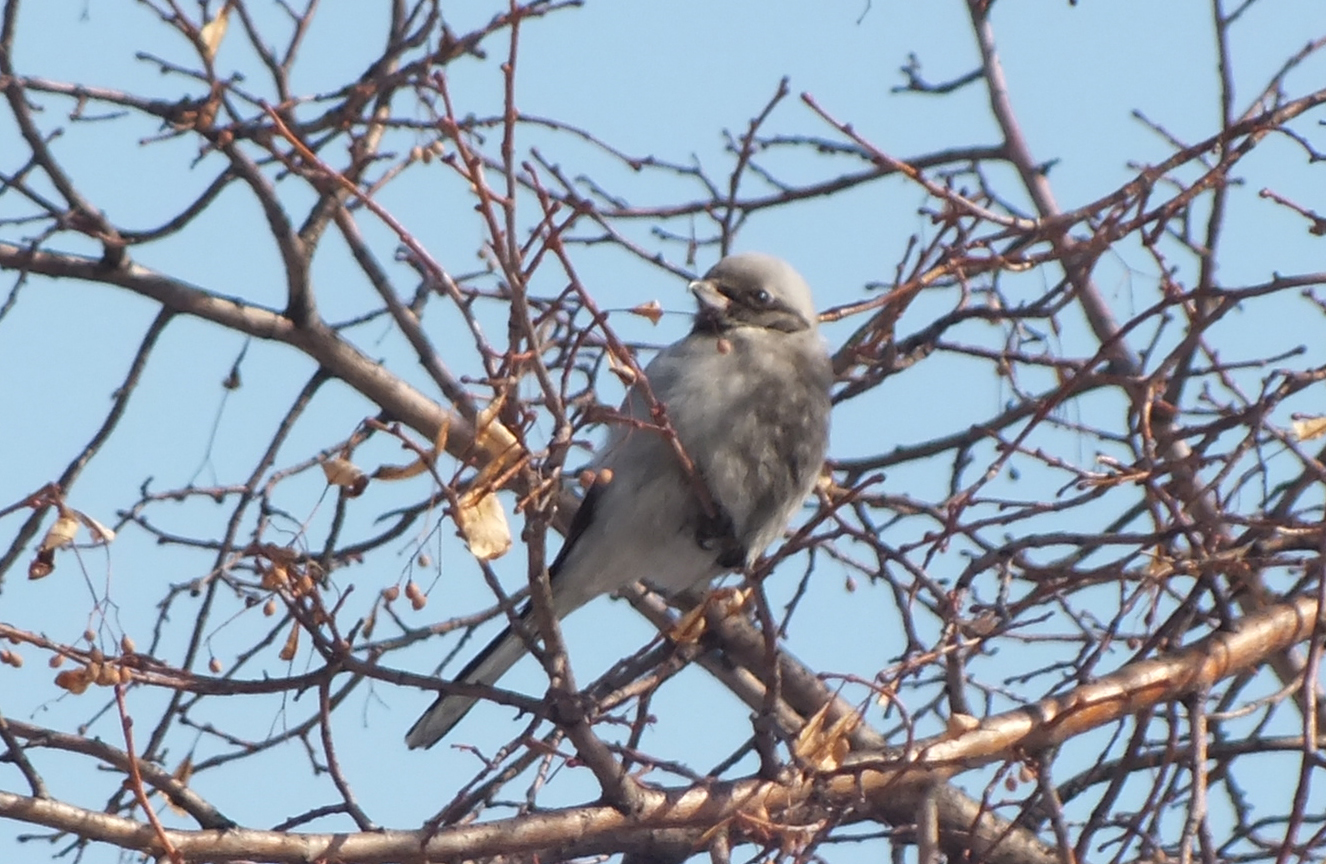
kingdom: Animalia
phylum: Chordata
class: Aves
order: Passeriformes
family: Laniidae
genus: Lanius
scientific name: Lanius borealis
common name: Northern shrike
